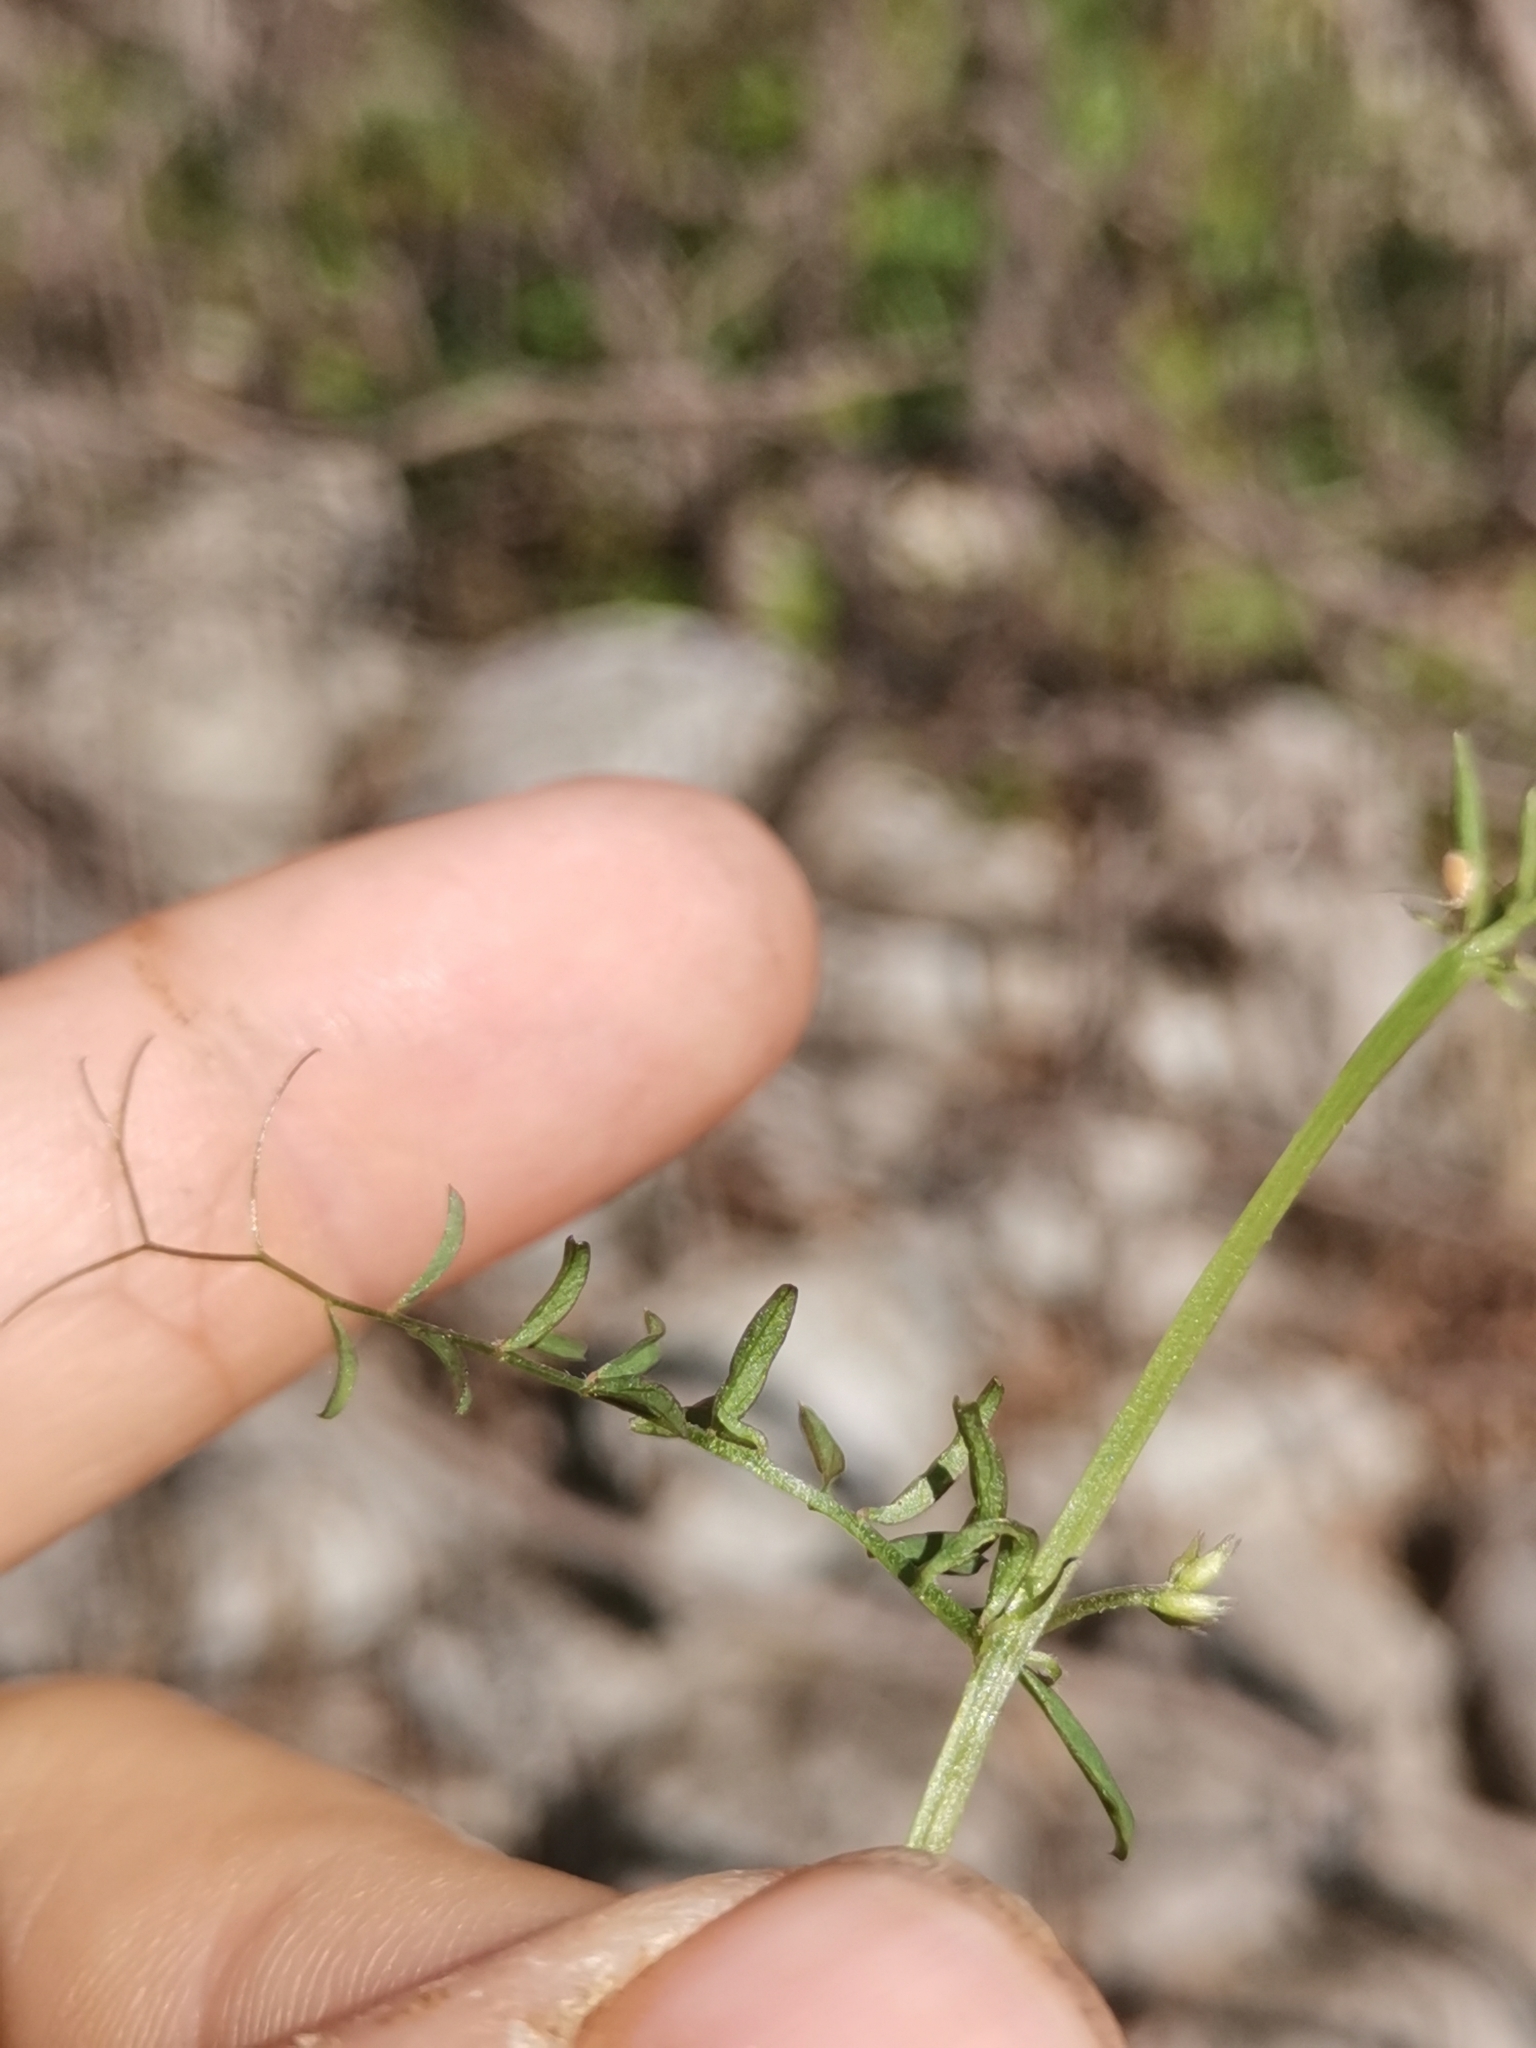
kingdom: Plantae
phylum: Tracheophyta
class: Magnoliopsida
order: Fabales
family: Fabaceae
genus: Vicia
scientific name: Vicia hirsuta
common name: Tiny vetch
